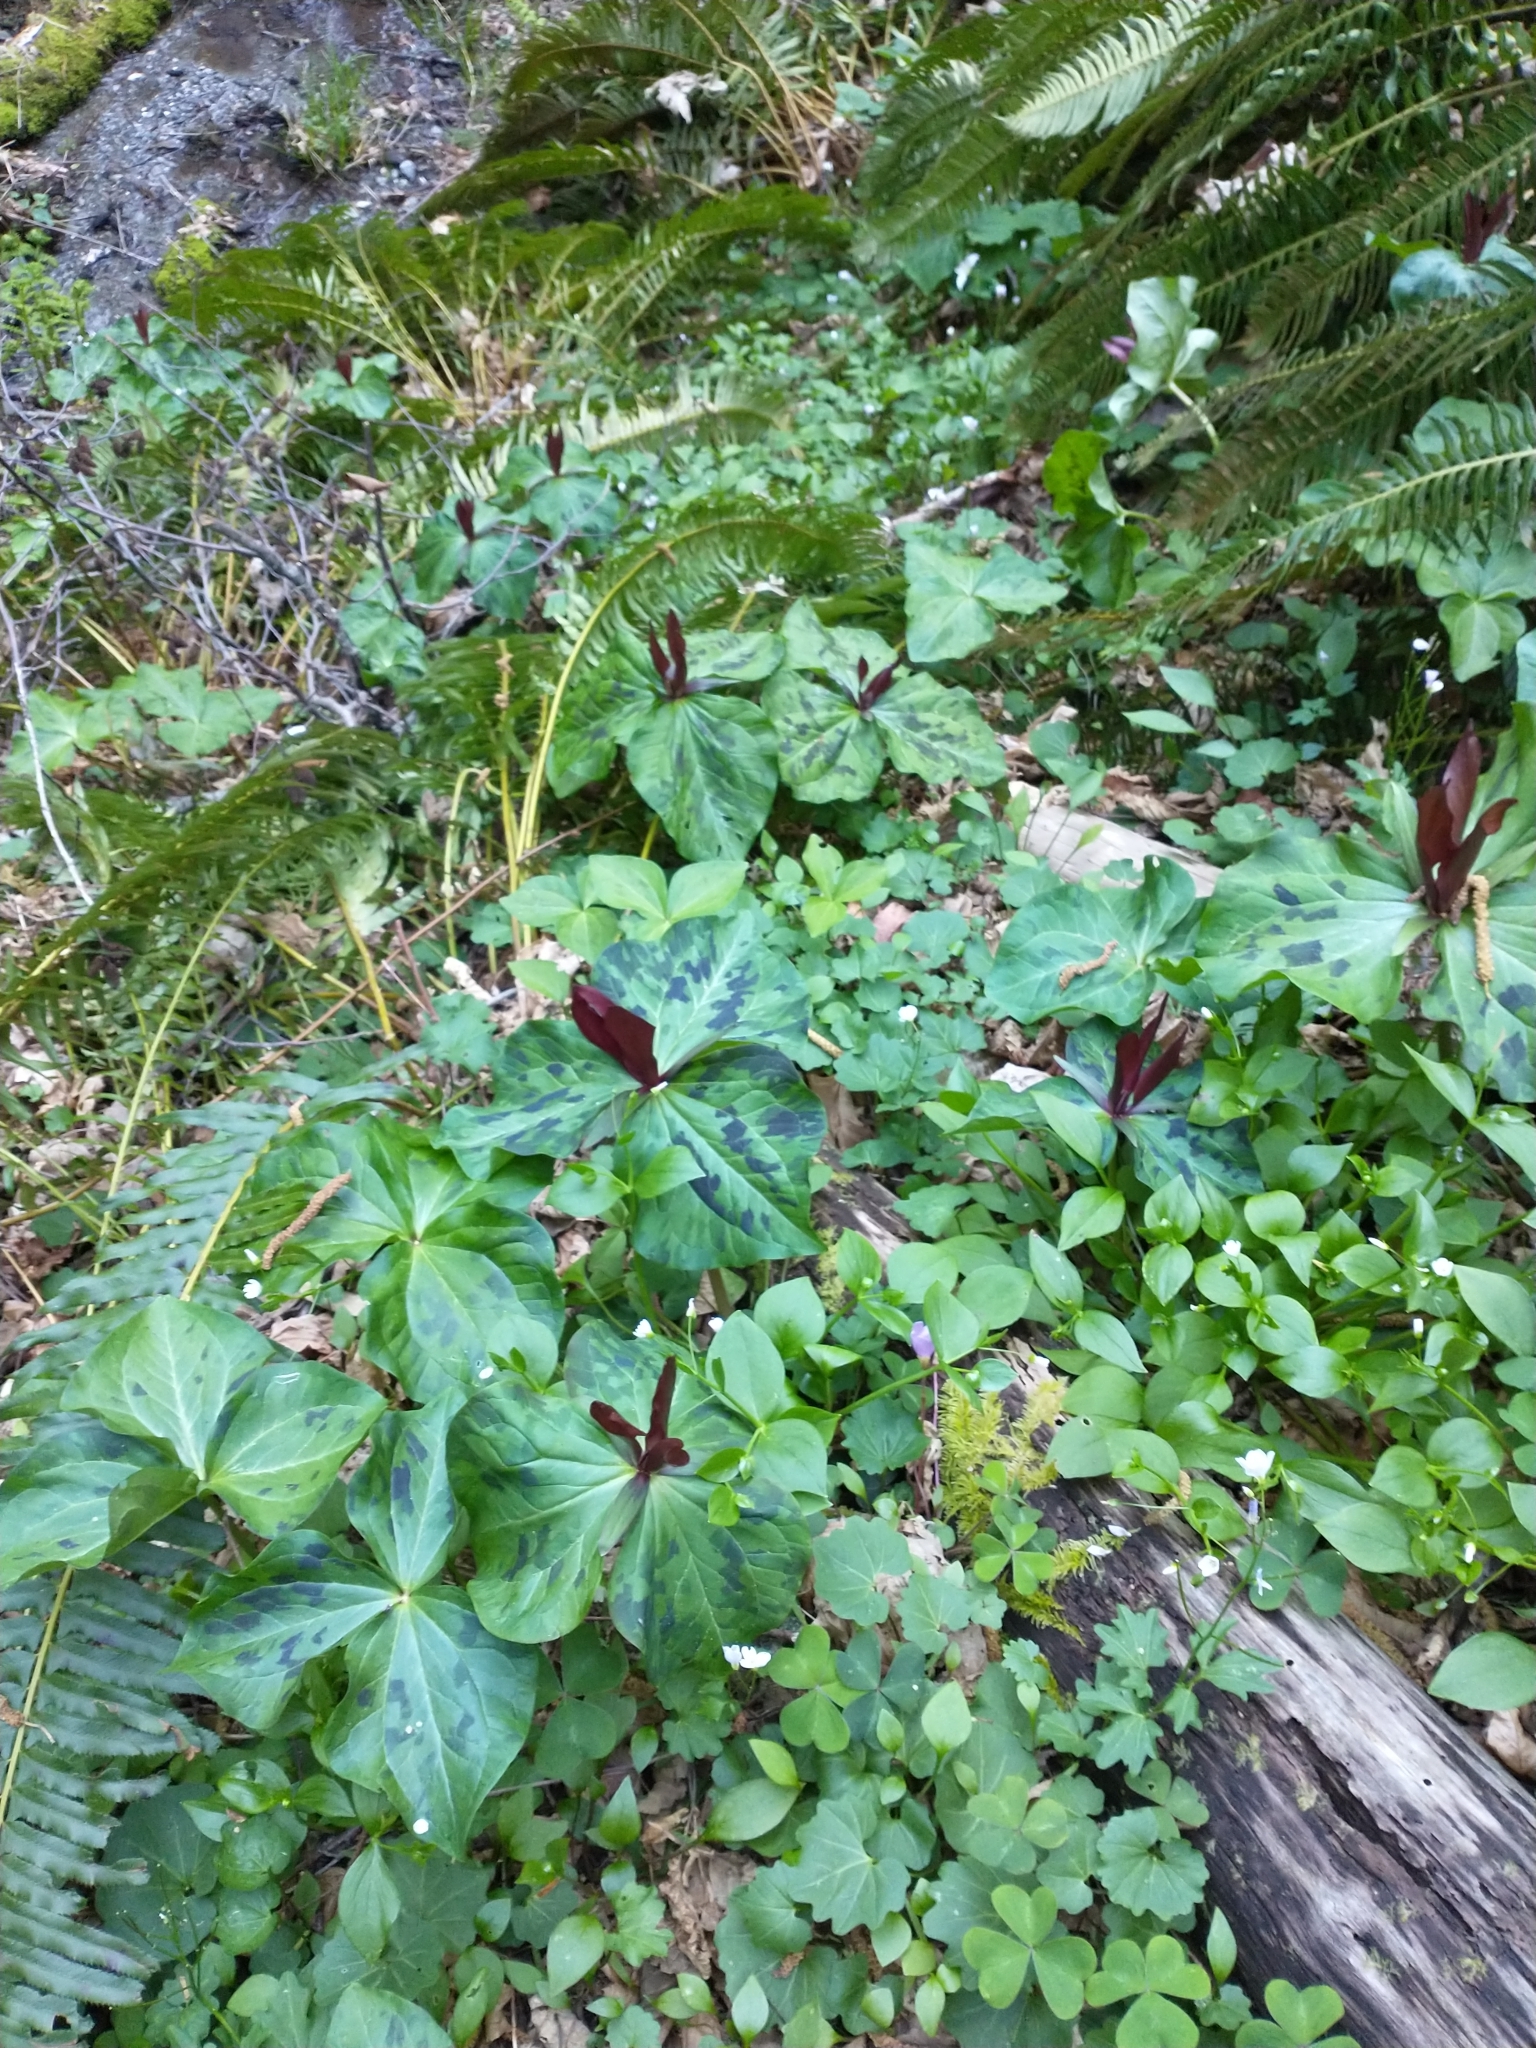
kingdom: Plantae
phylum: Tracheophyta
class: Liliopsida
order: Liliales
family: Melanthiaceae
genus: Trillium
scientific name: Trillium kurabayashii
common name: Giant purple trillium
